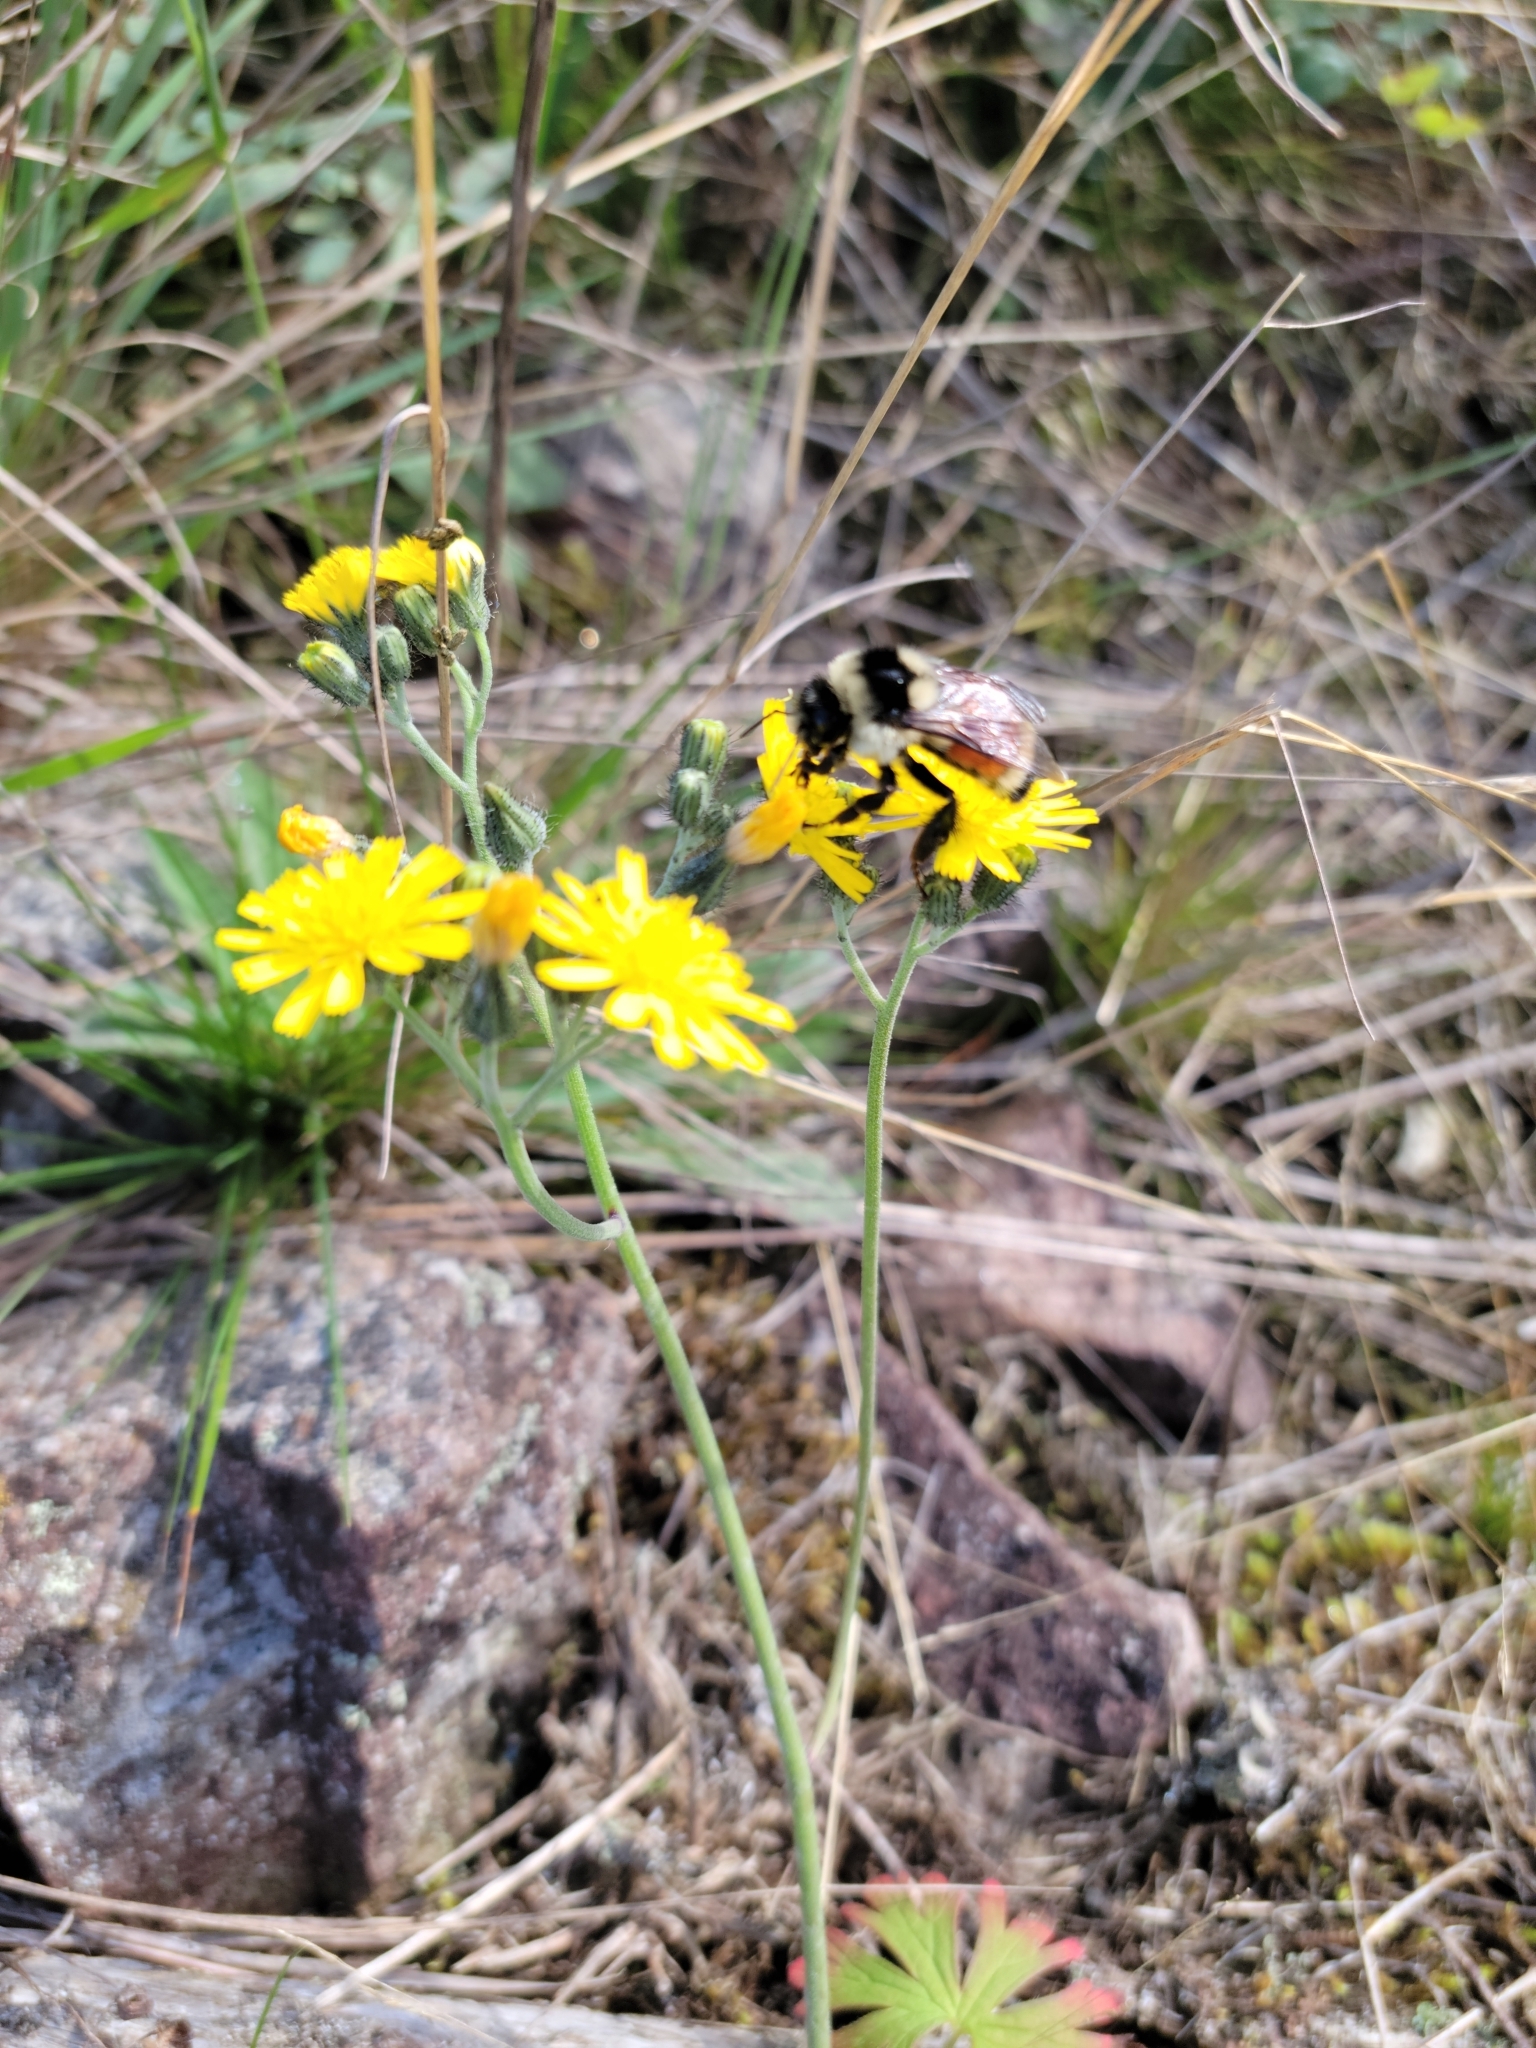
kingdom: Animalia
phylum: Arthropoda
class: Insecta
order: Hymenoptera
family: Apidae
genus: Bombus
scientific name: Bombus ternarius
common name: Tri-colored bumble bee
